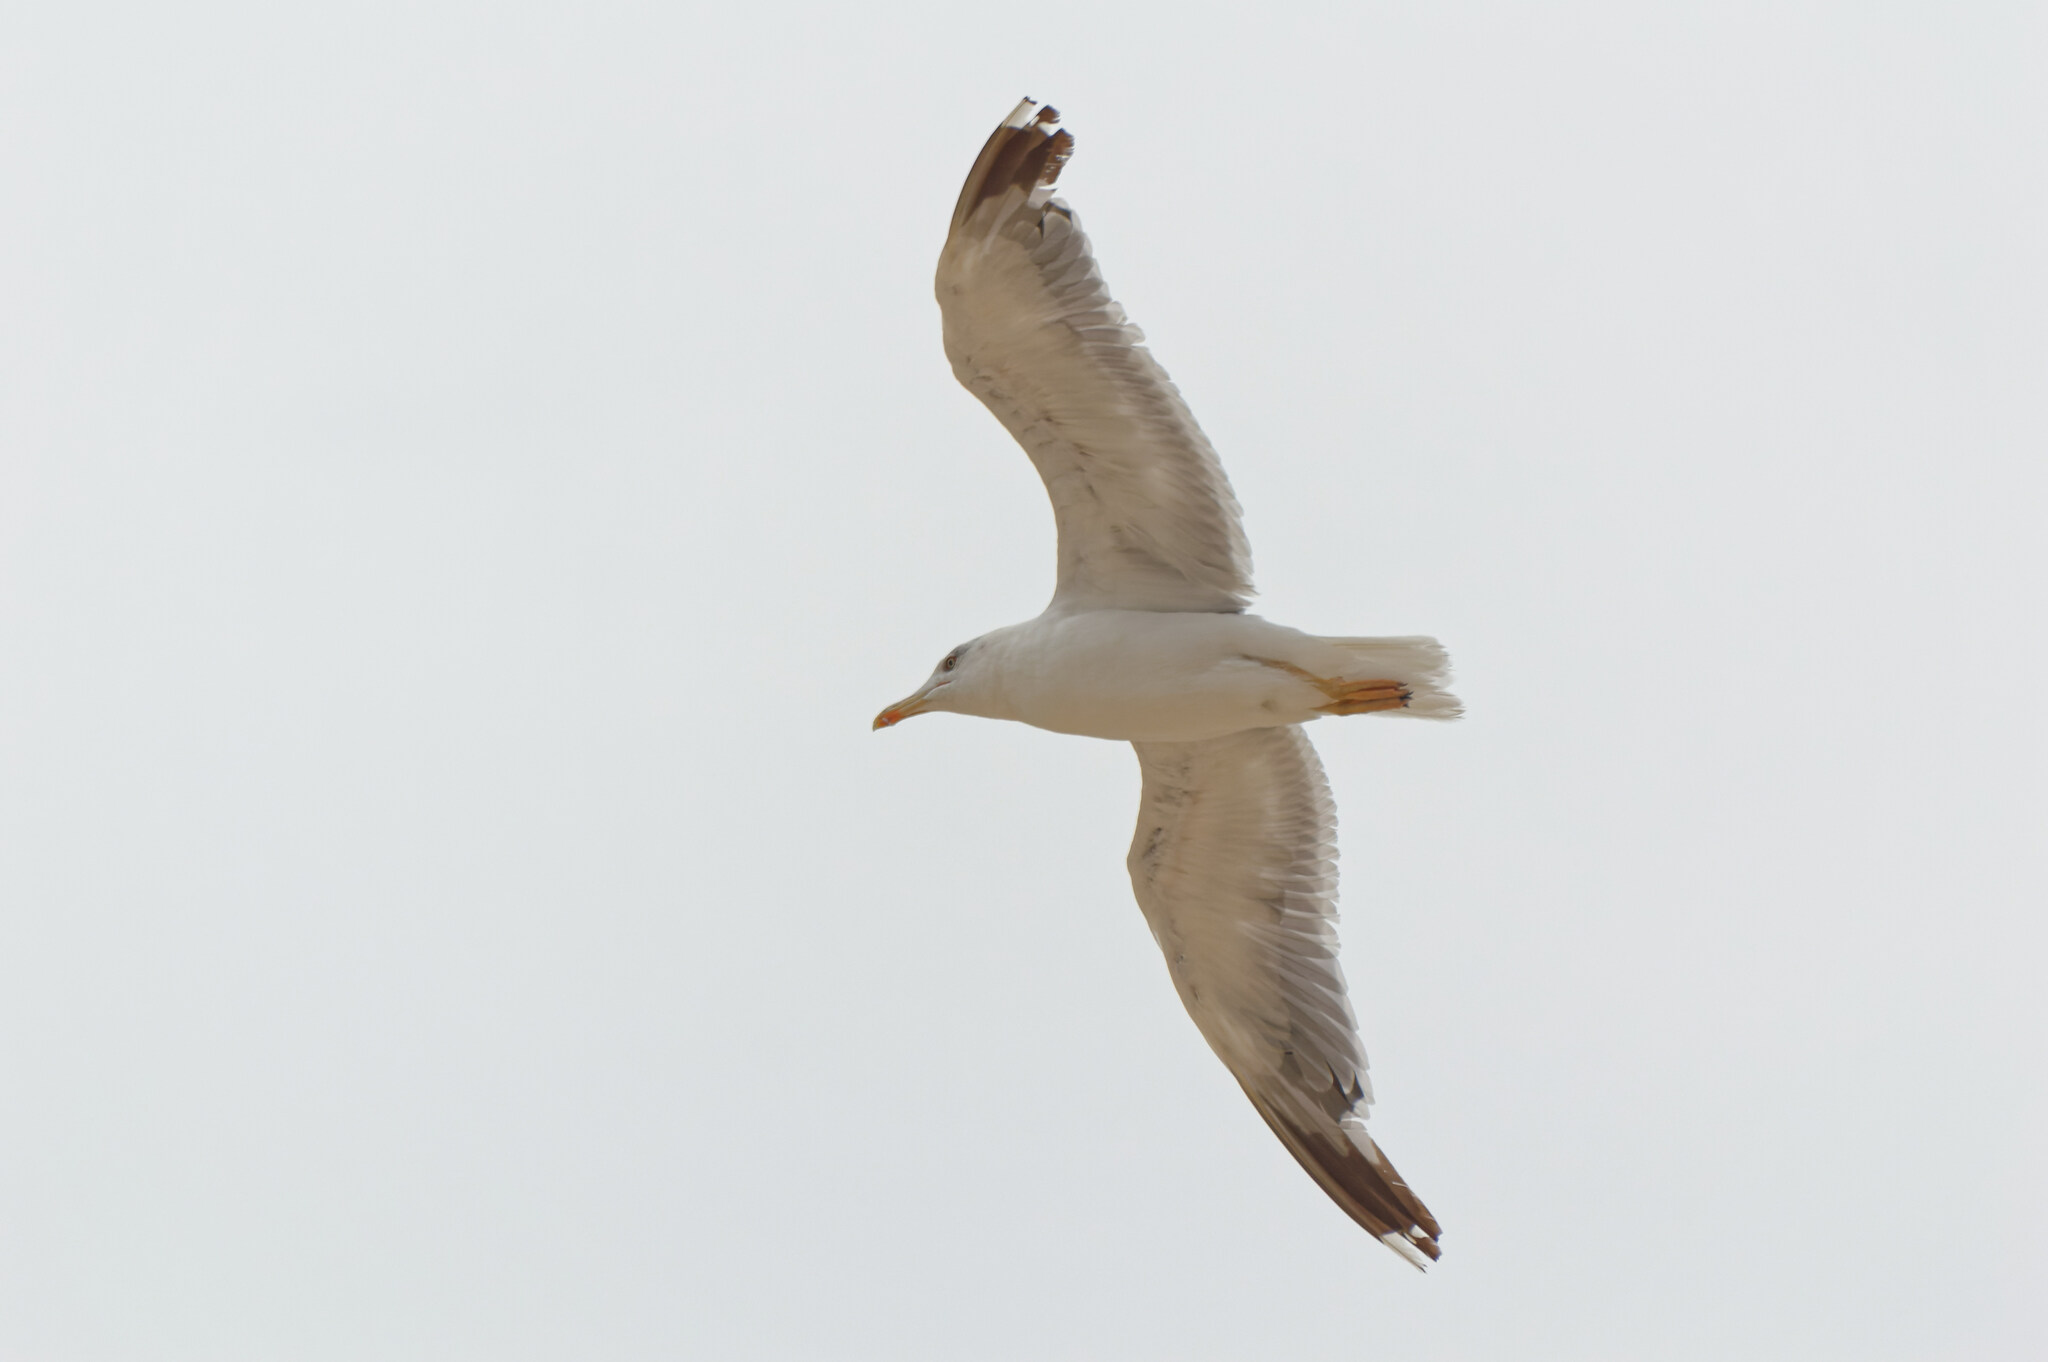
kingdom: Animalia
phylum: Chordata
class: Aves
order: Charadriiformes
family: Laridae
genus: Larus
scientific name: Larus michahellis
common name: Yellow-legged gull
